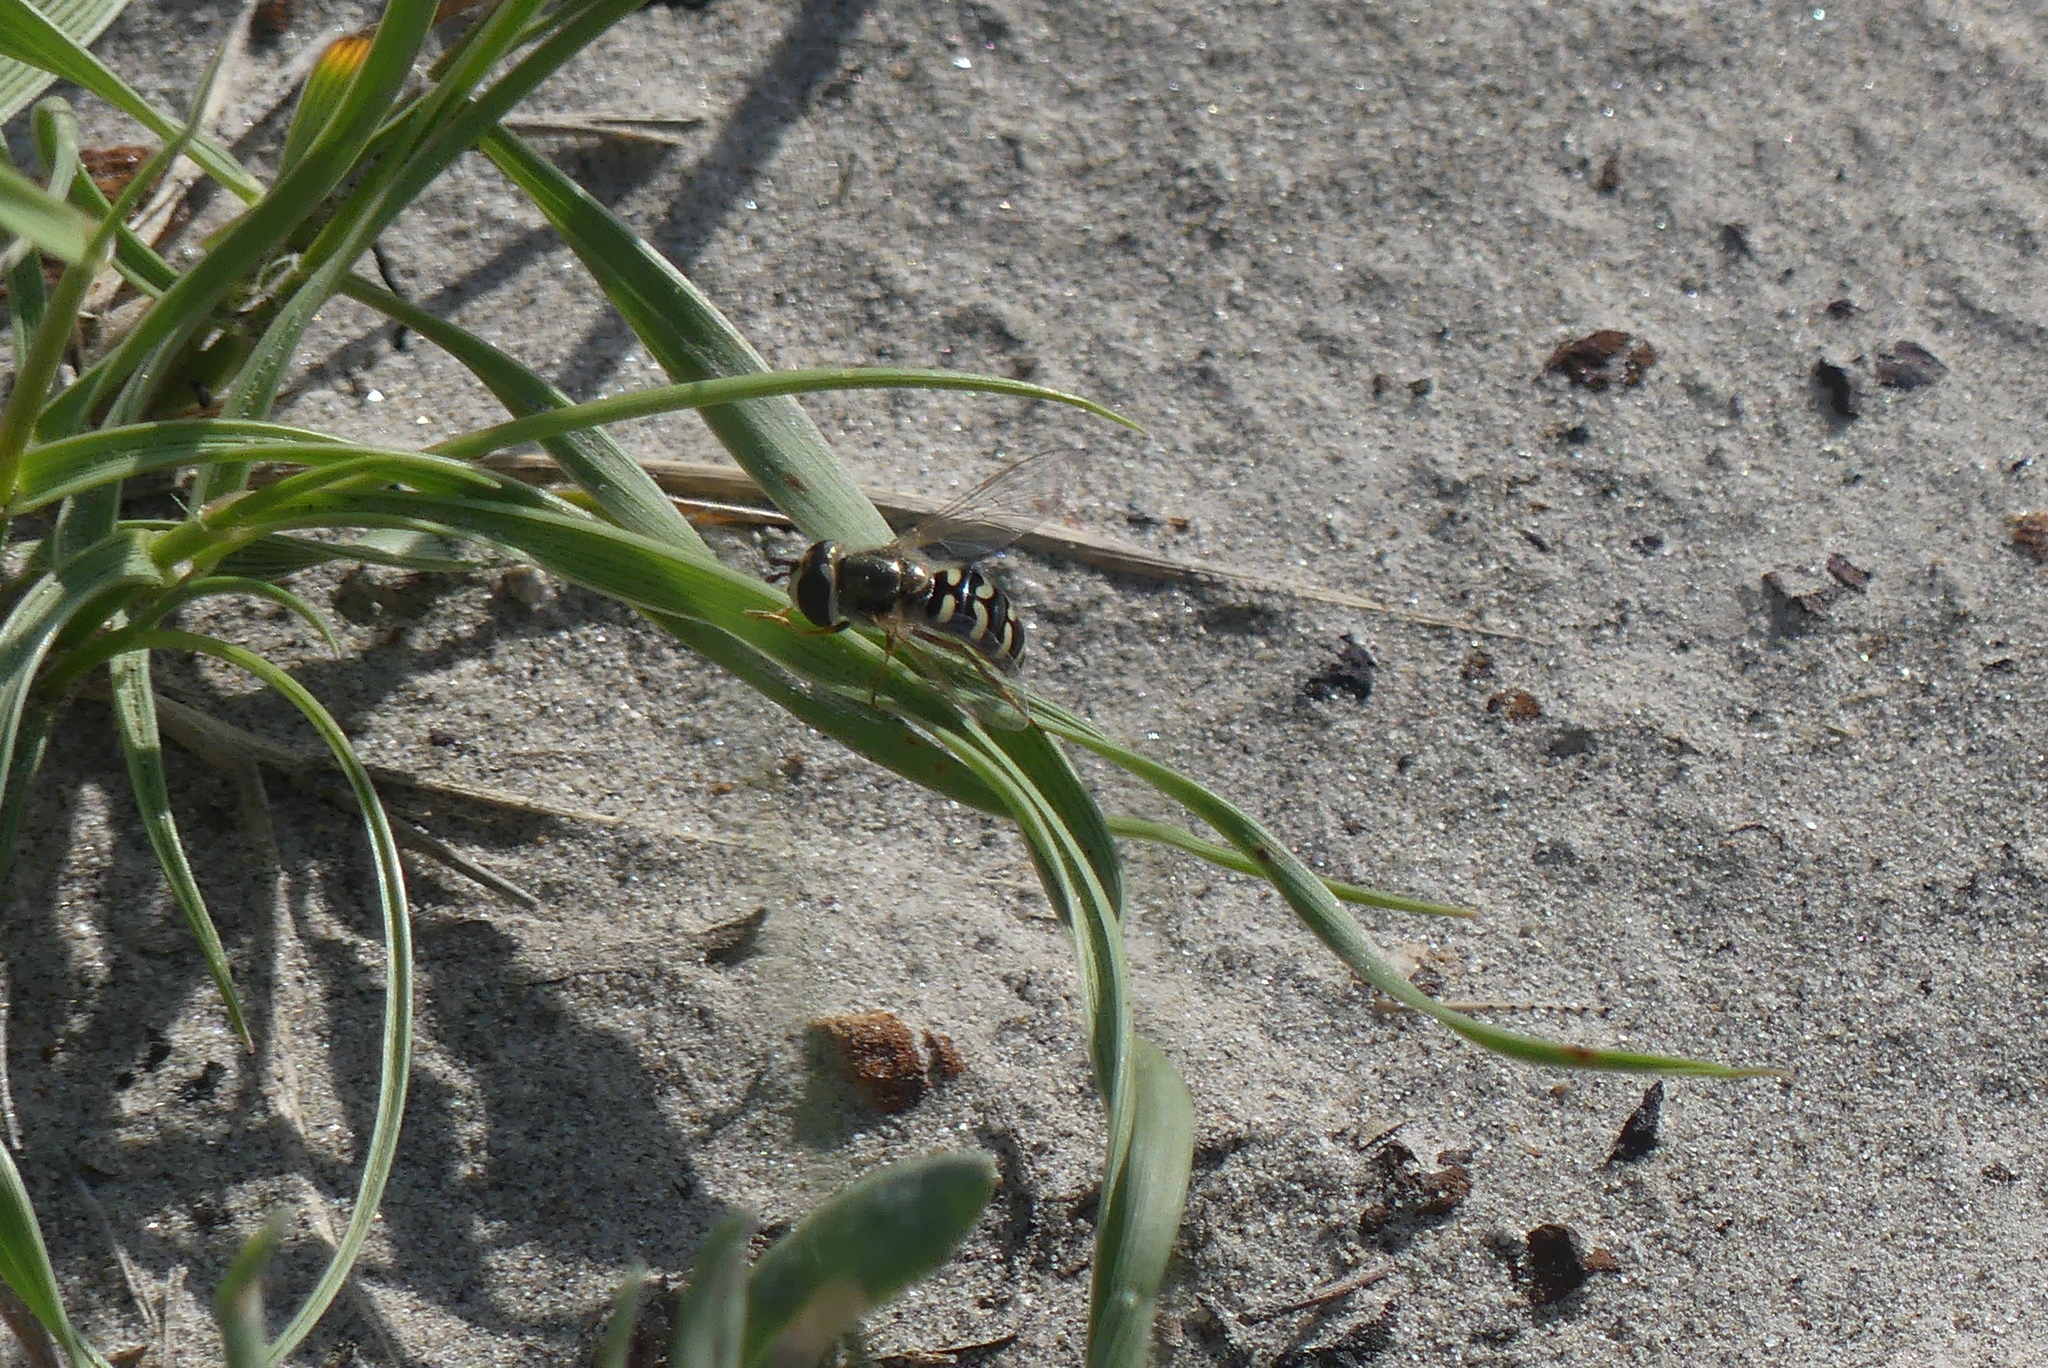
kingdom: Animalia
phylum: Arthropoda
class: Insecta
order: Diptera
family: Syrphidae
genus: Eupeodes
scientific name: Eupeodes volucris
